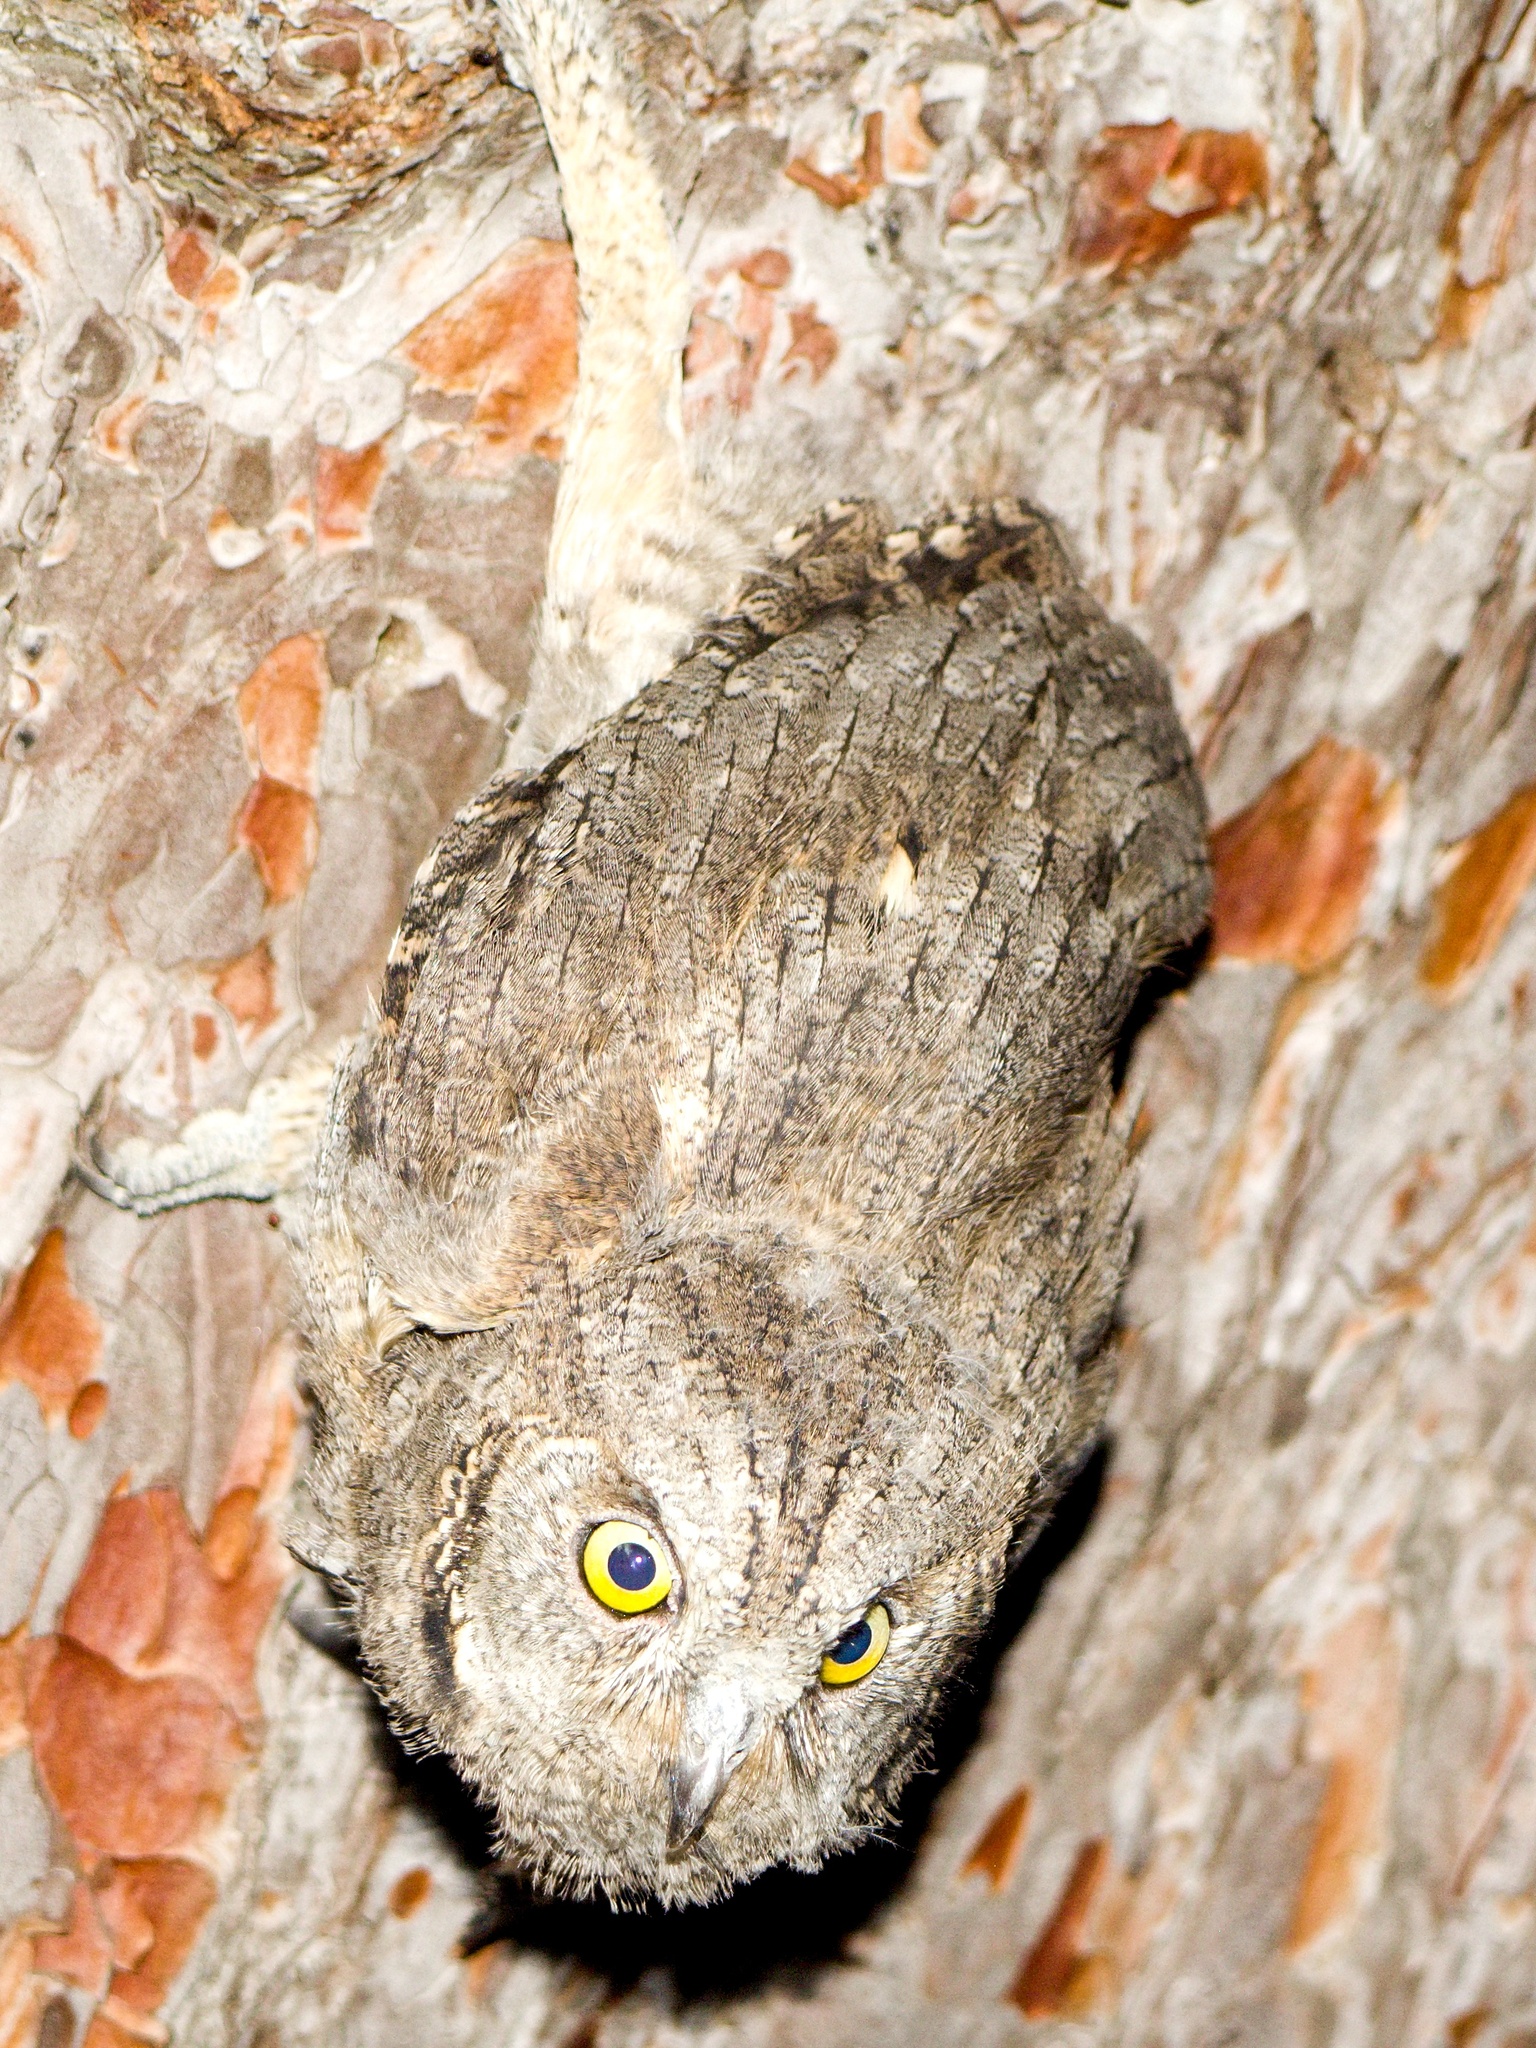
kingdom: Animalia
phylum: Chordata
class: Aves
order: Strigiformes
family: Strigidae
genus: Otus
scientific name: Otus scops
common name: Eurasian scops owl
